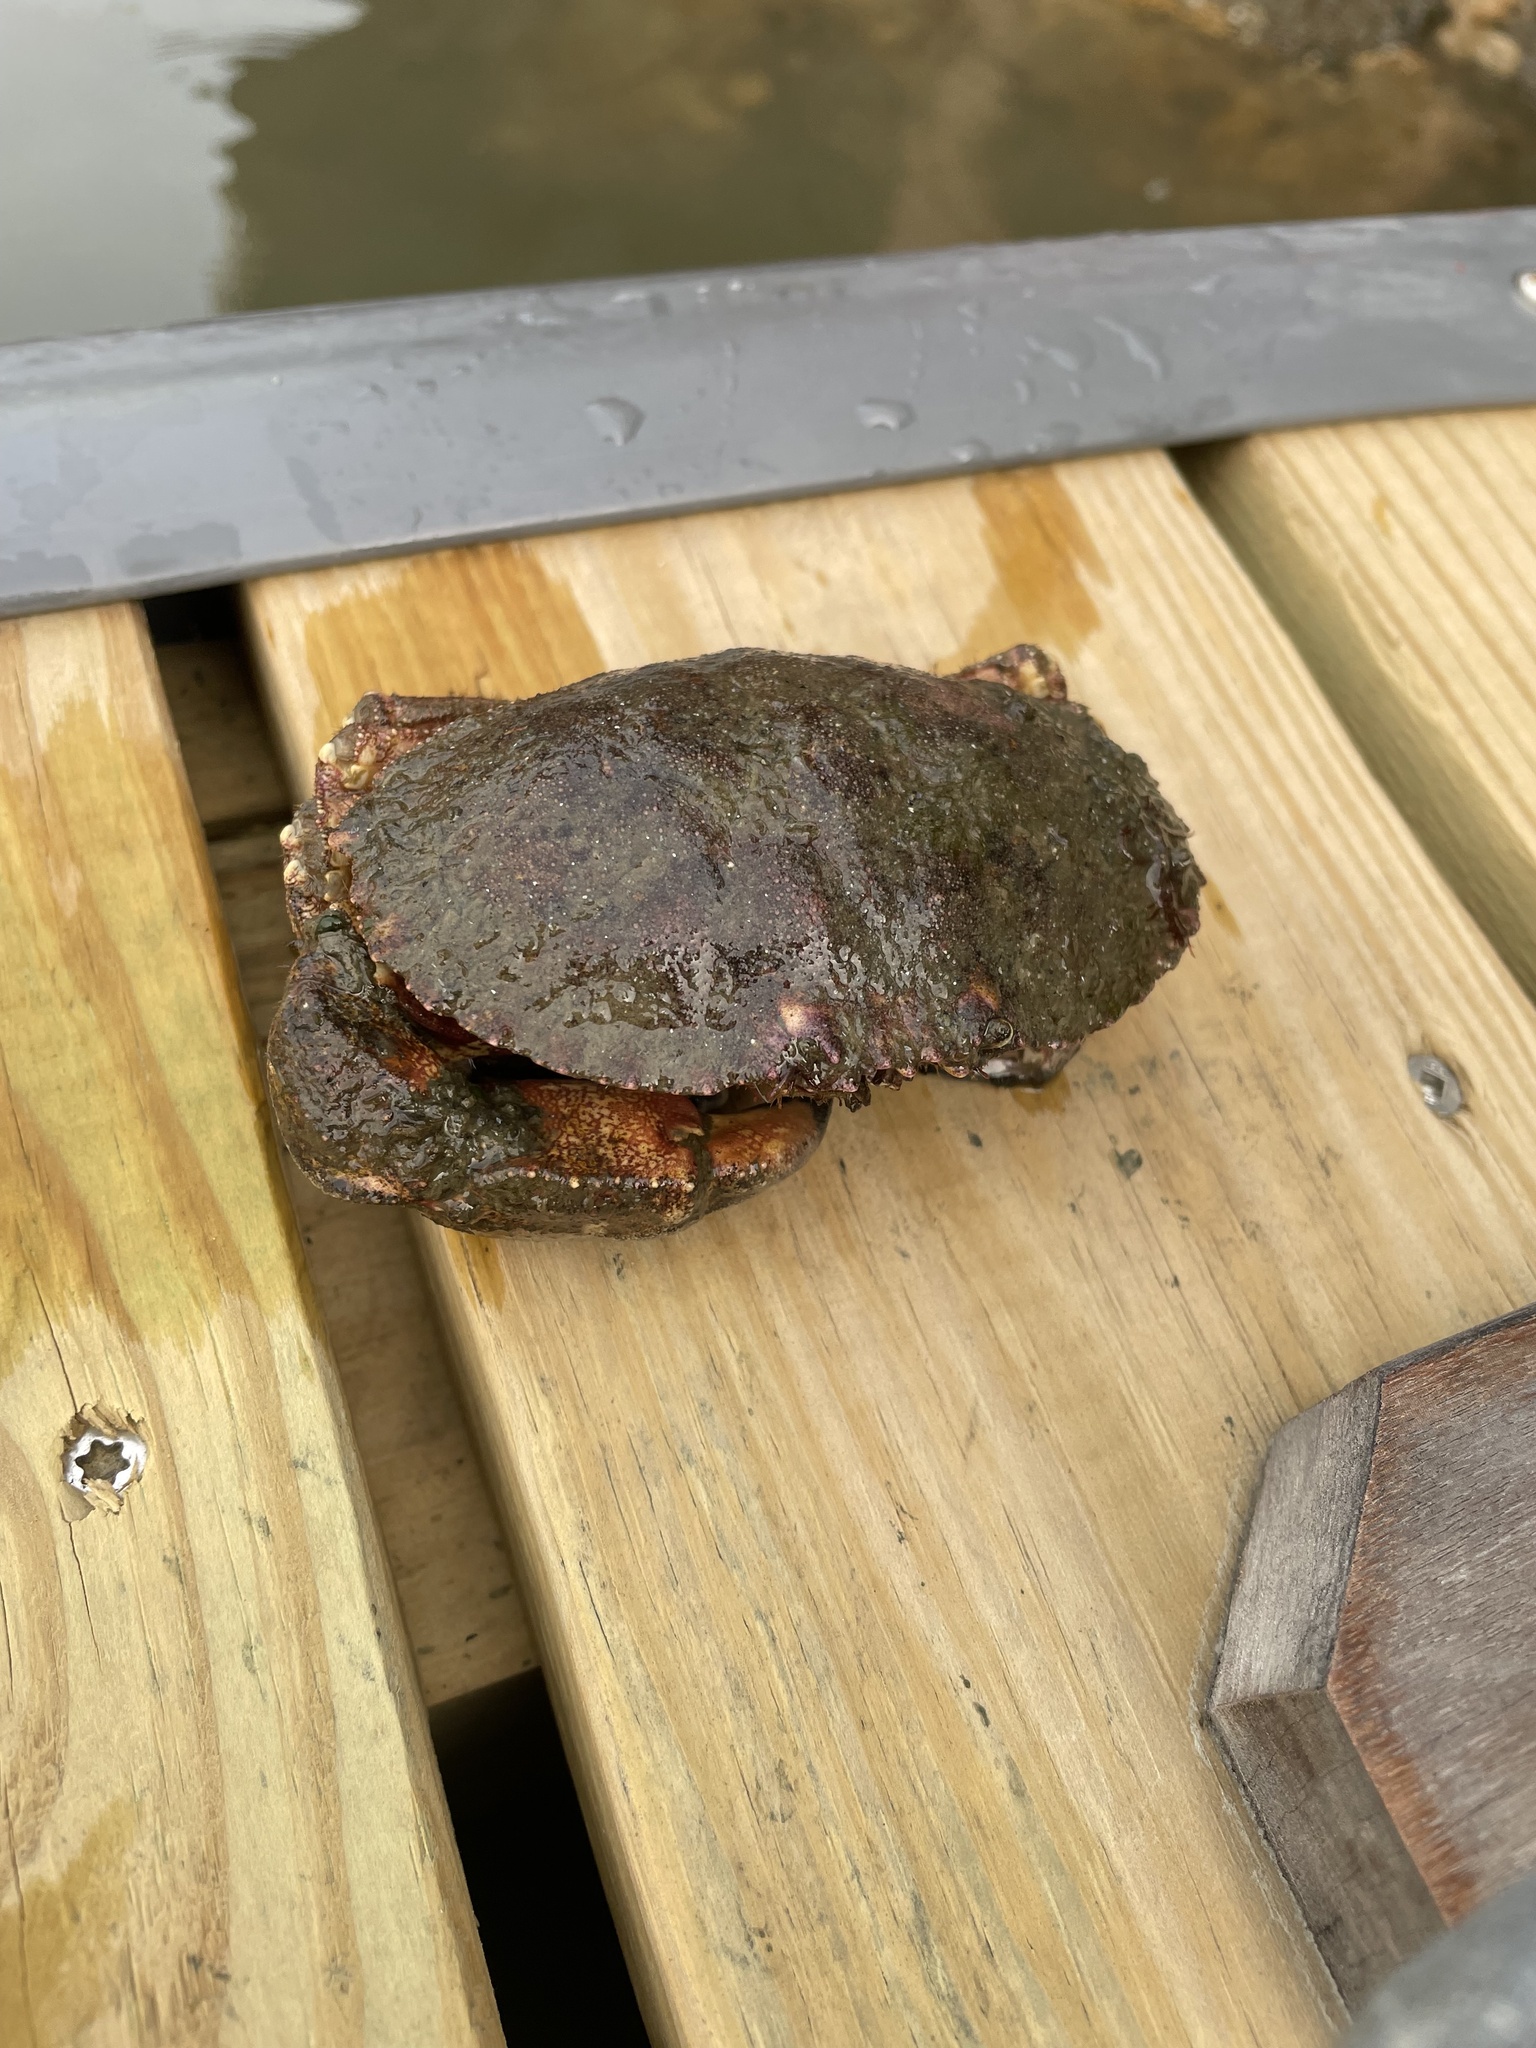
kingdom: Animalia
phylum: Arthropoda
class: Malacostraca
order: Decapoda
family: Cancridae
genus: Cancer
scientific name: Cancer borealis
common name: Jonah crab
